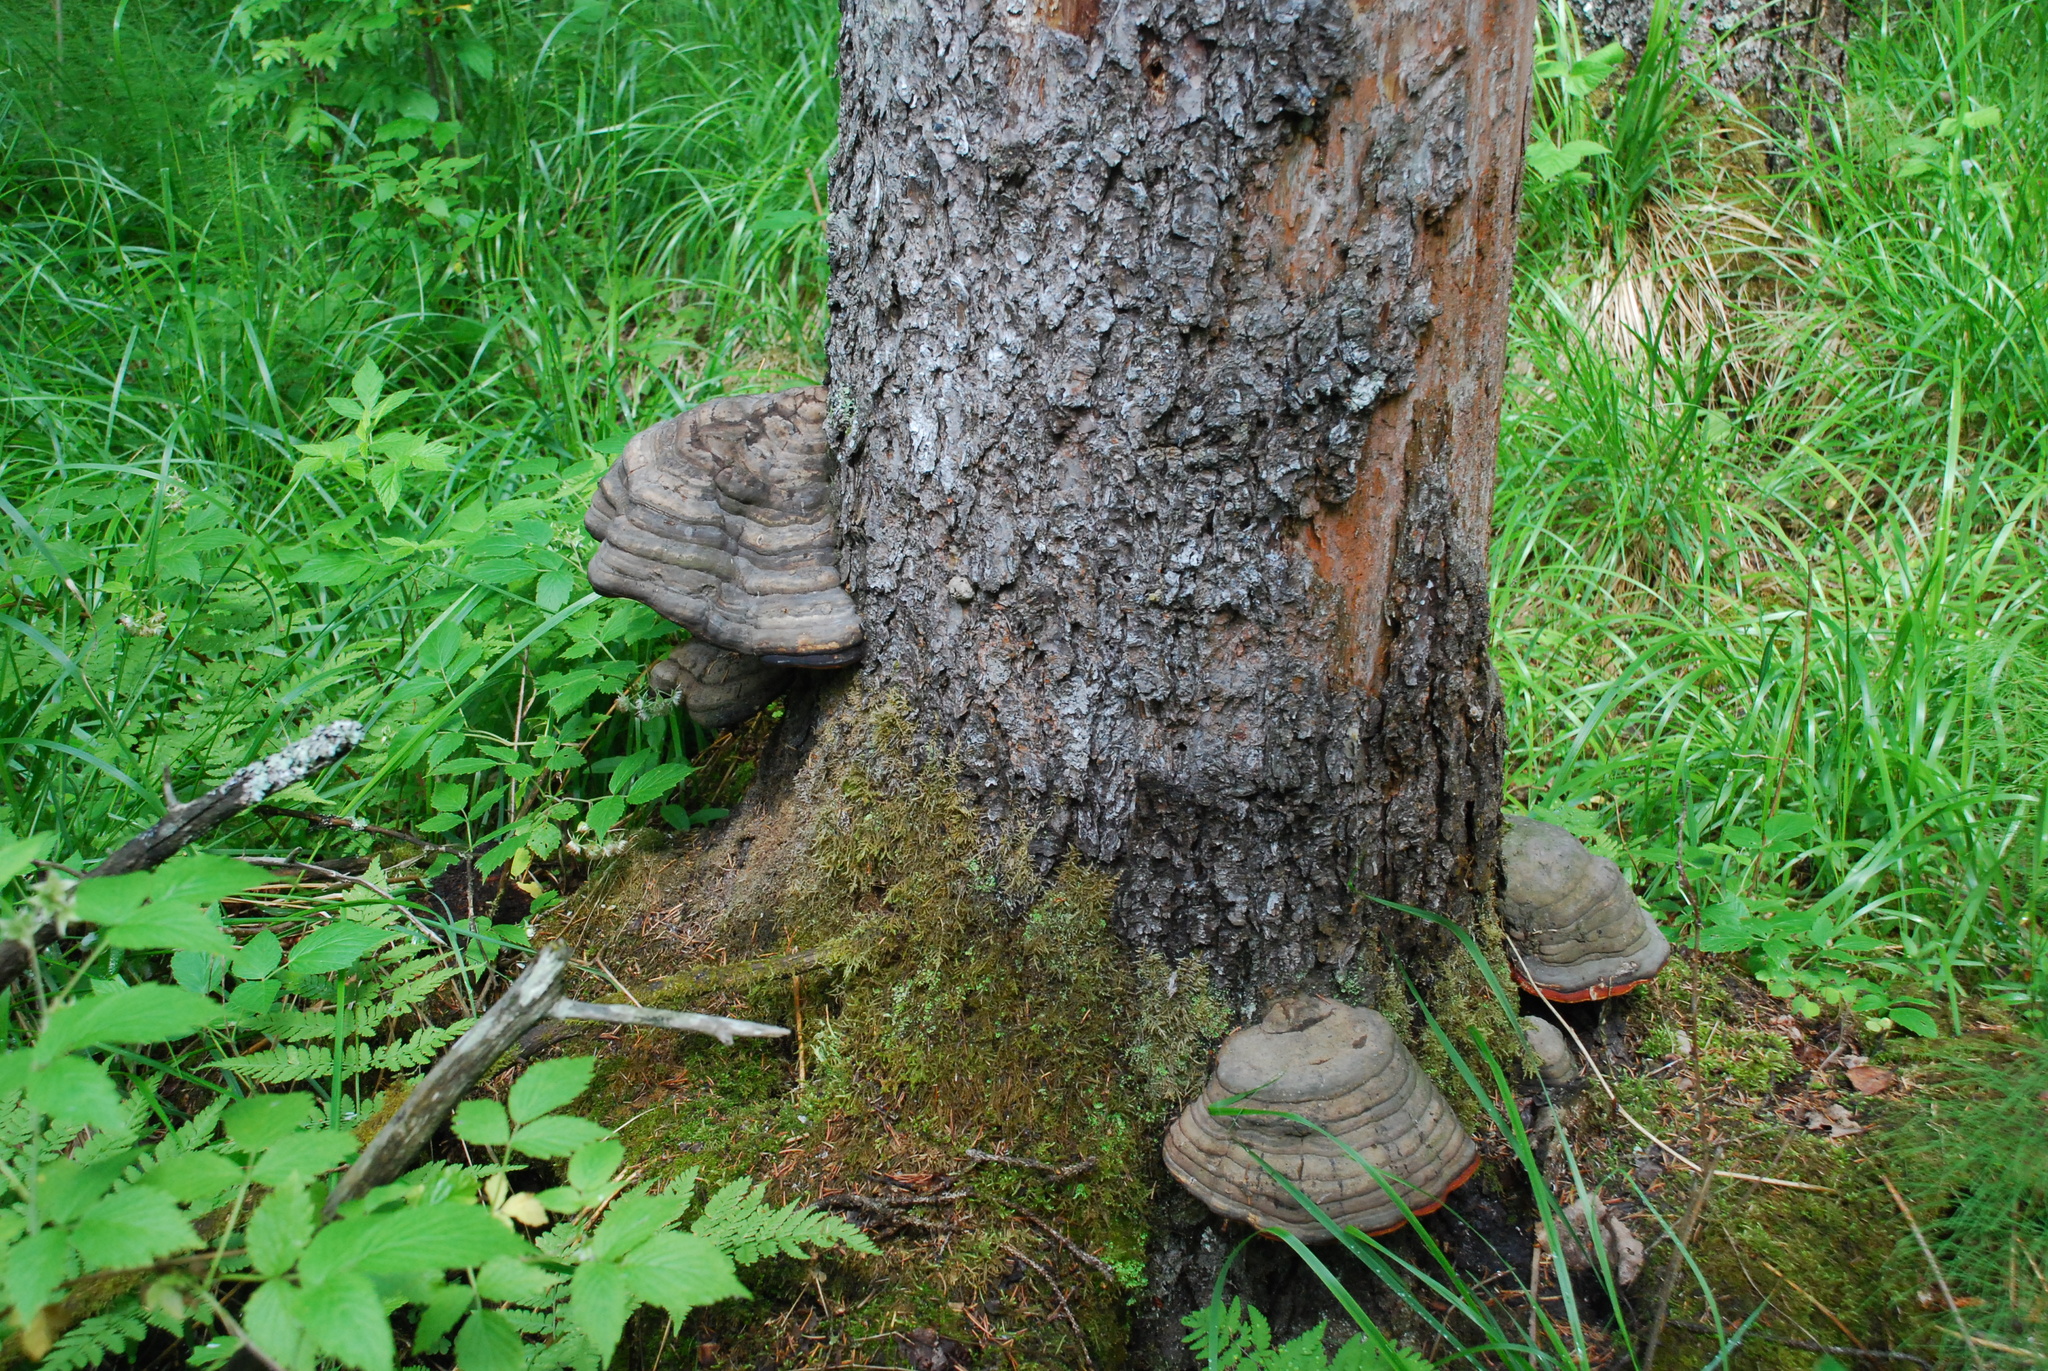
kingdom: Fungi
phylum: Basidiomycota
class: Agaricomycetes
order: Polyporales
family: Fomitopsidaceae
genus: Fomitopsis
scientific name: Fomitopsis pinicola
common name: Red-belted bracket
